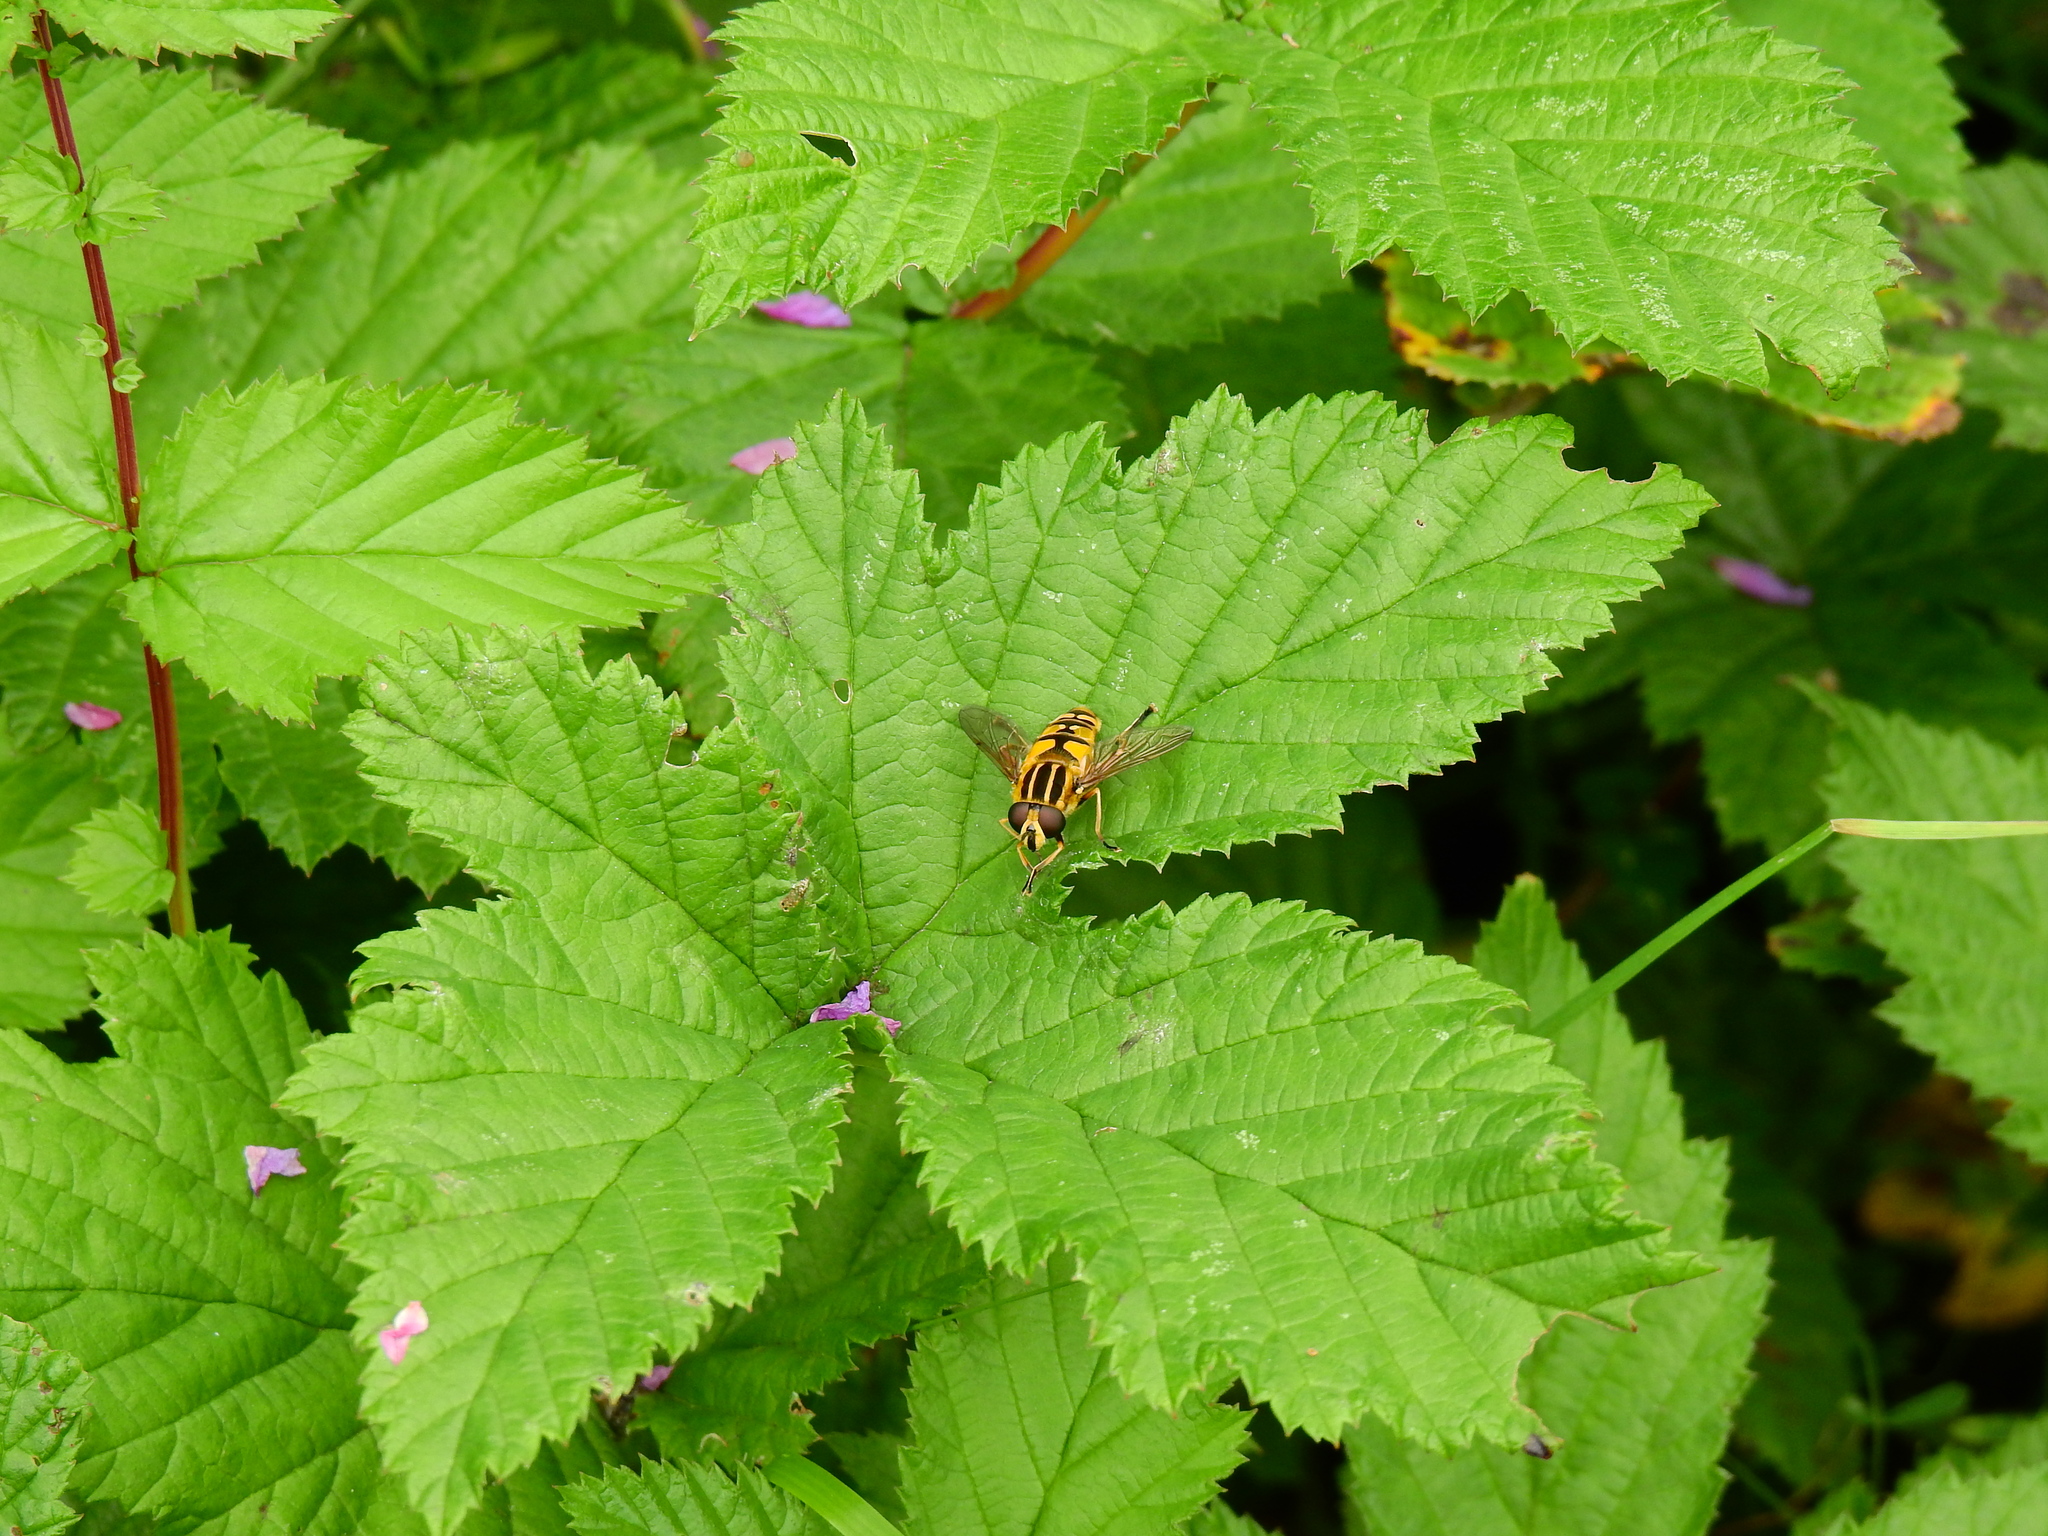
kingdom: Animalia
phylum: Arthropoda
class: Insecta
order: Diptera
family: Syrphidae
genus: Helophilus
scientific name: Helophilus pendulus
